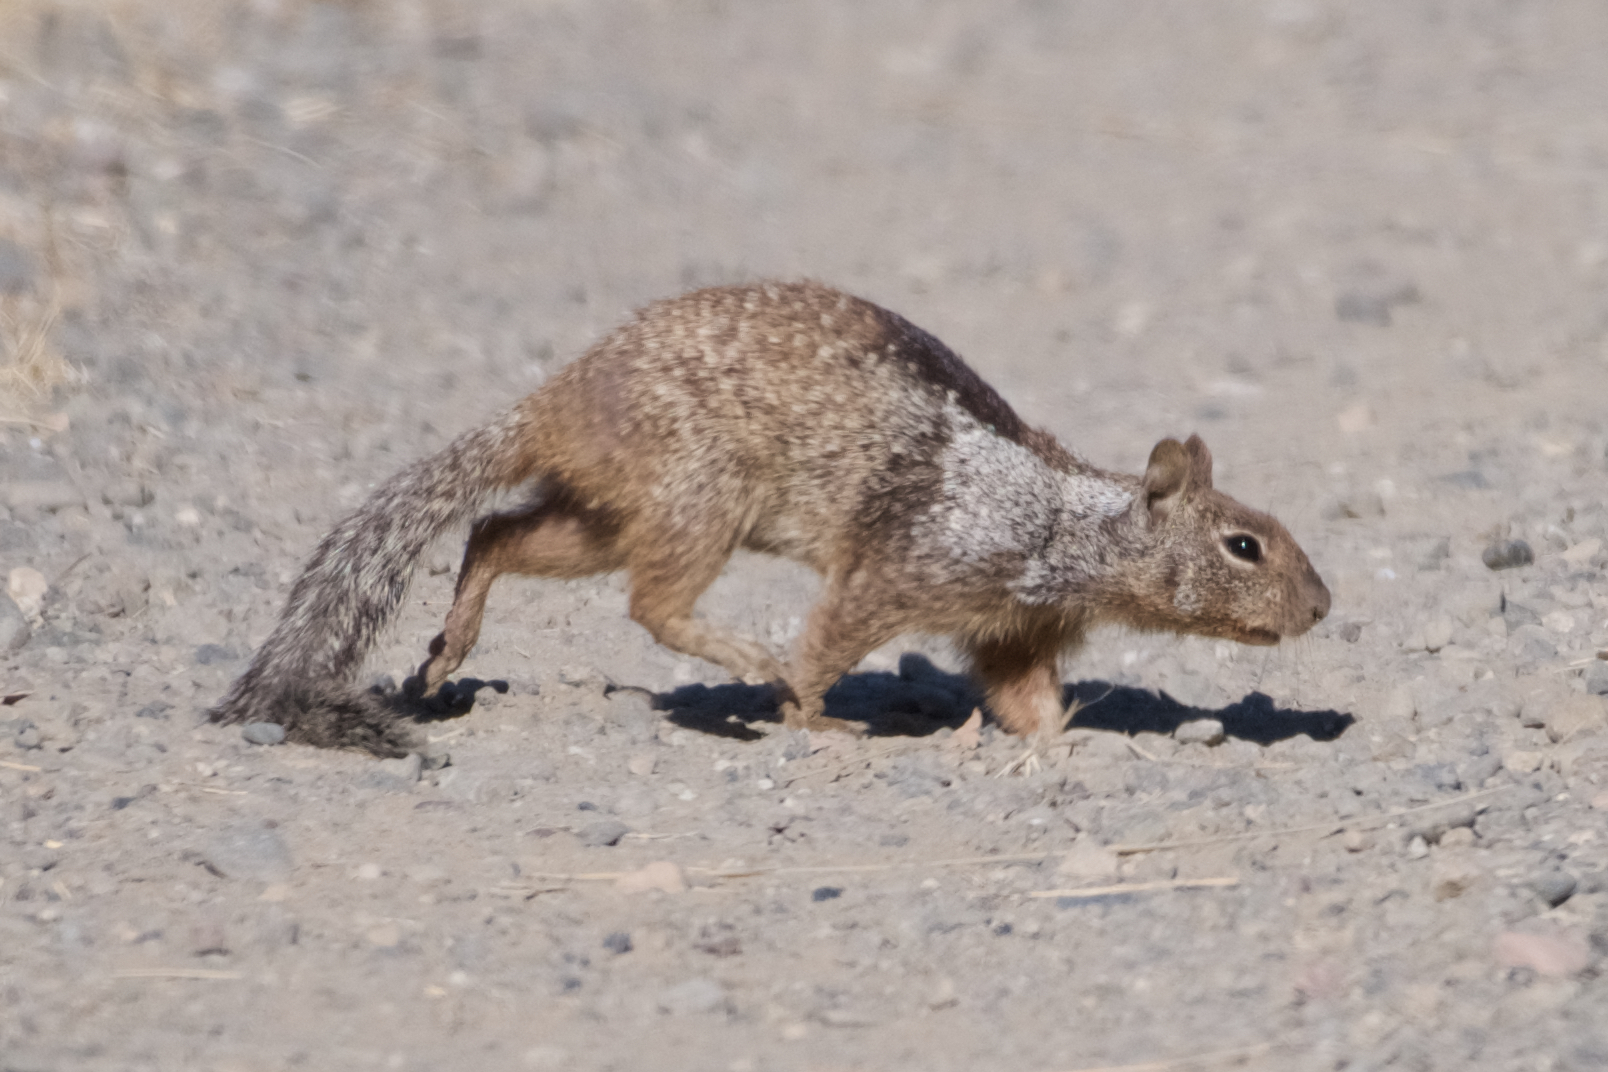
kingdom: Animalia
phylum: Chordata
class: Mammalia
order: Rodentia
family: Sciuridae
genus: Otospermophilus
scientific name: Otospermophilus beecheyi
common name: California ground squirrel
